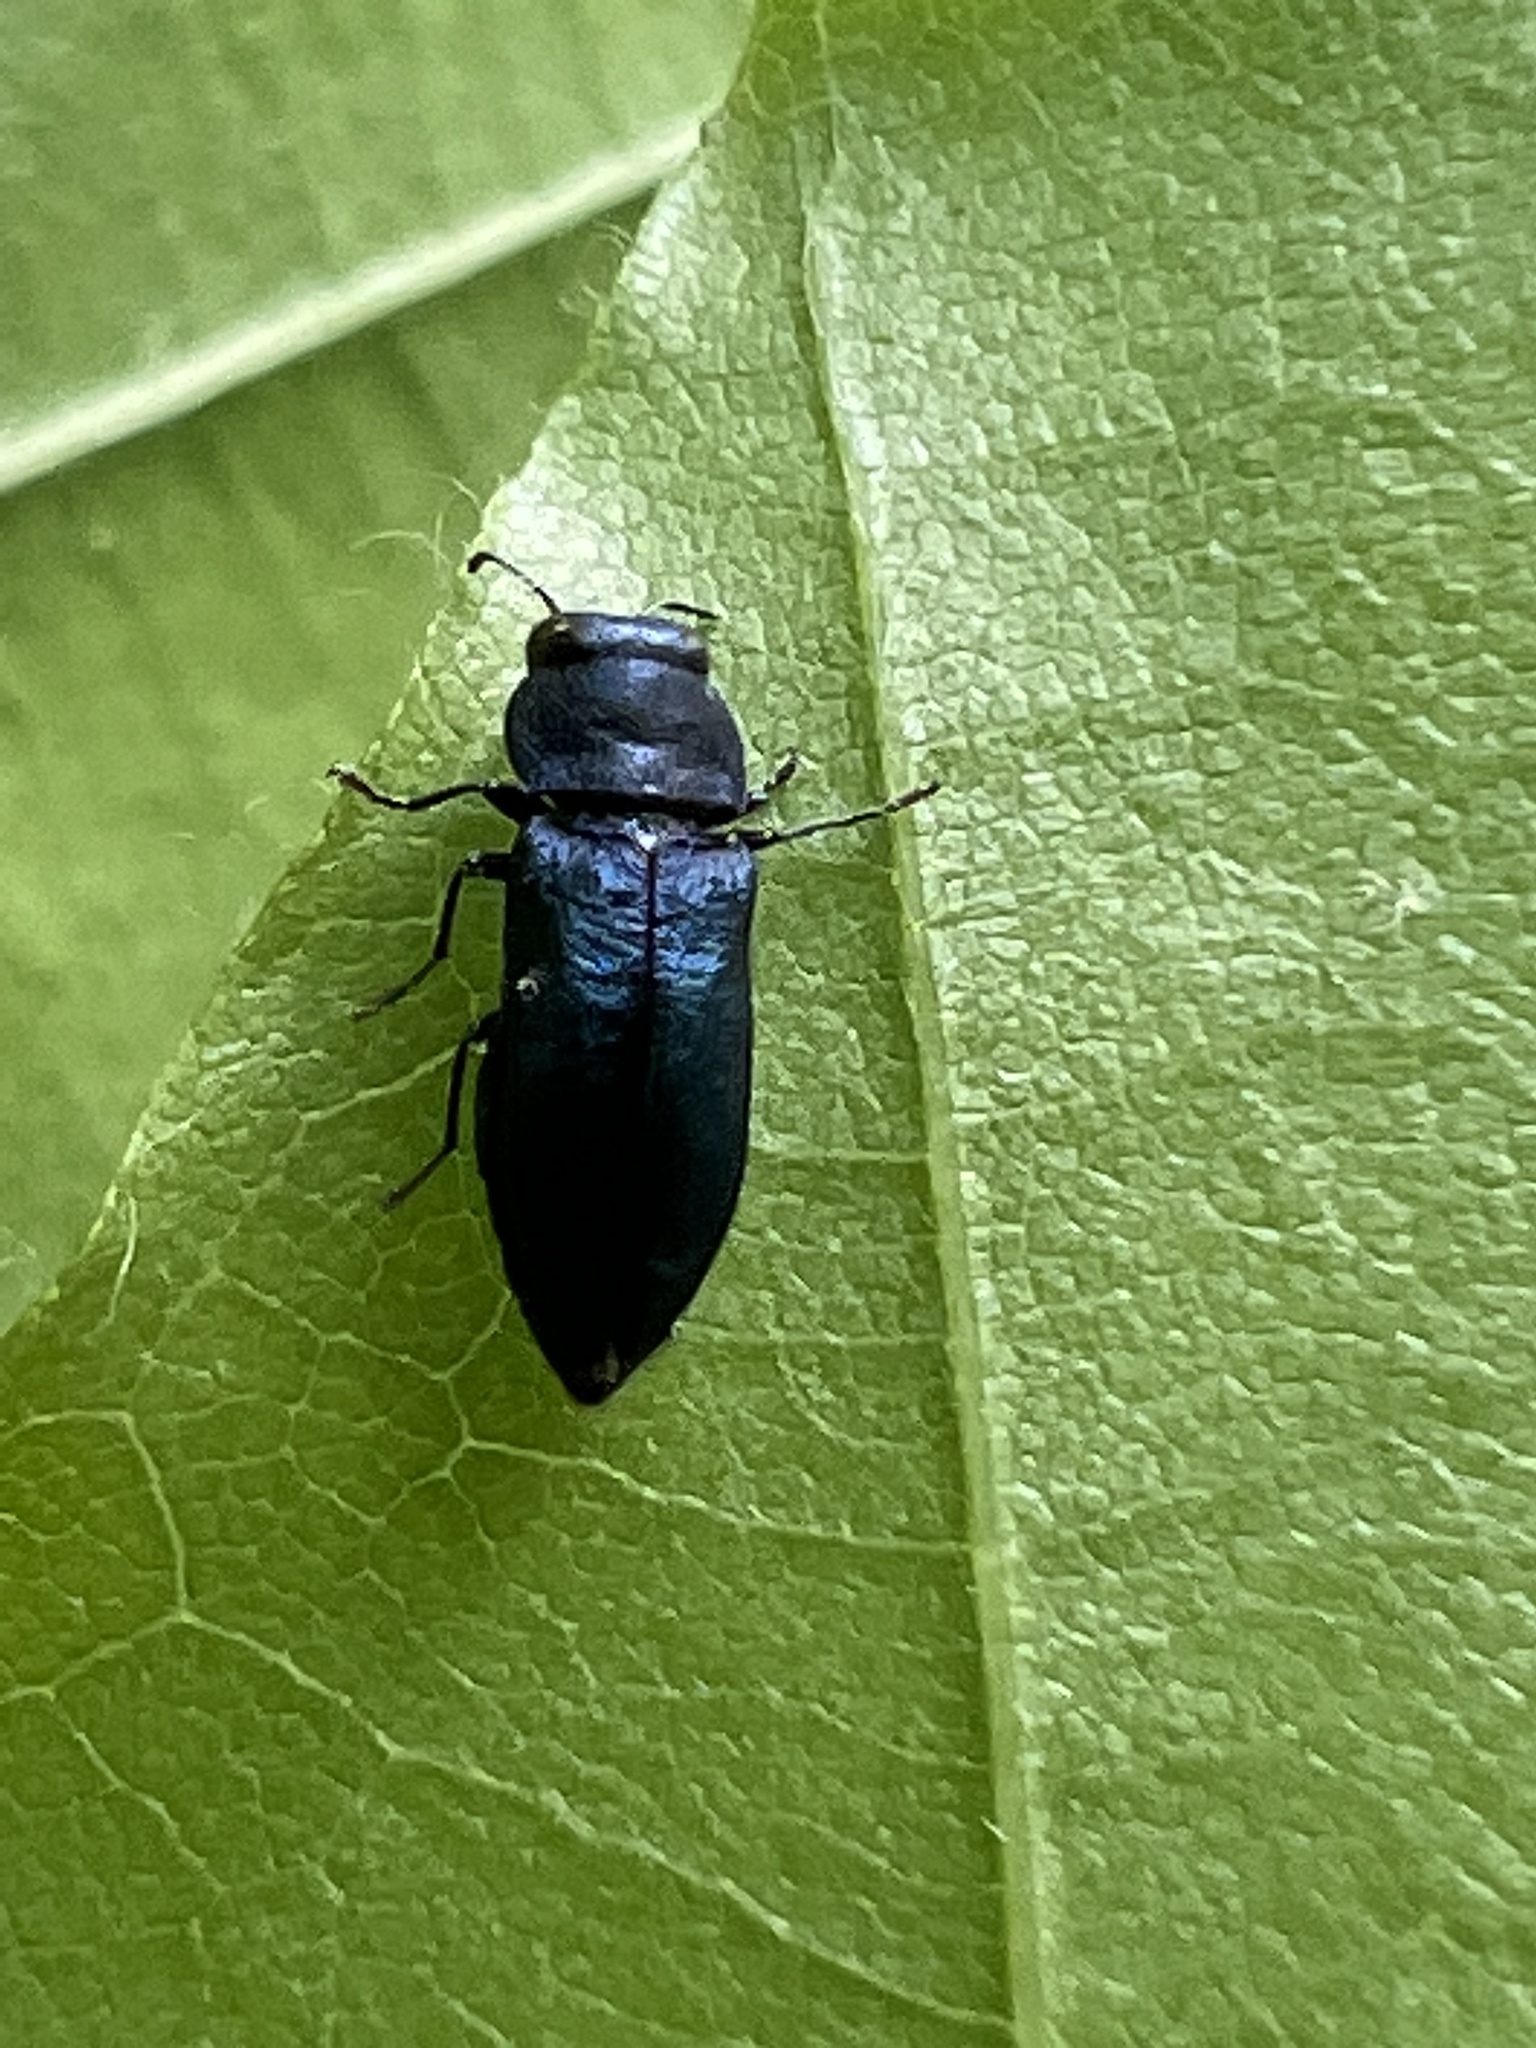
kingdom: Animalia
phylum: Arthropoda
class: Insecta
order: Coleoptera
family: Buprestidae
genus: Agrilus
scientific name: Agrilus cyanescens
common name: Bluish borer beetle
